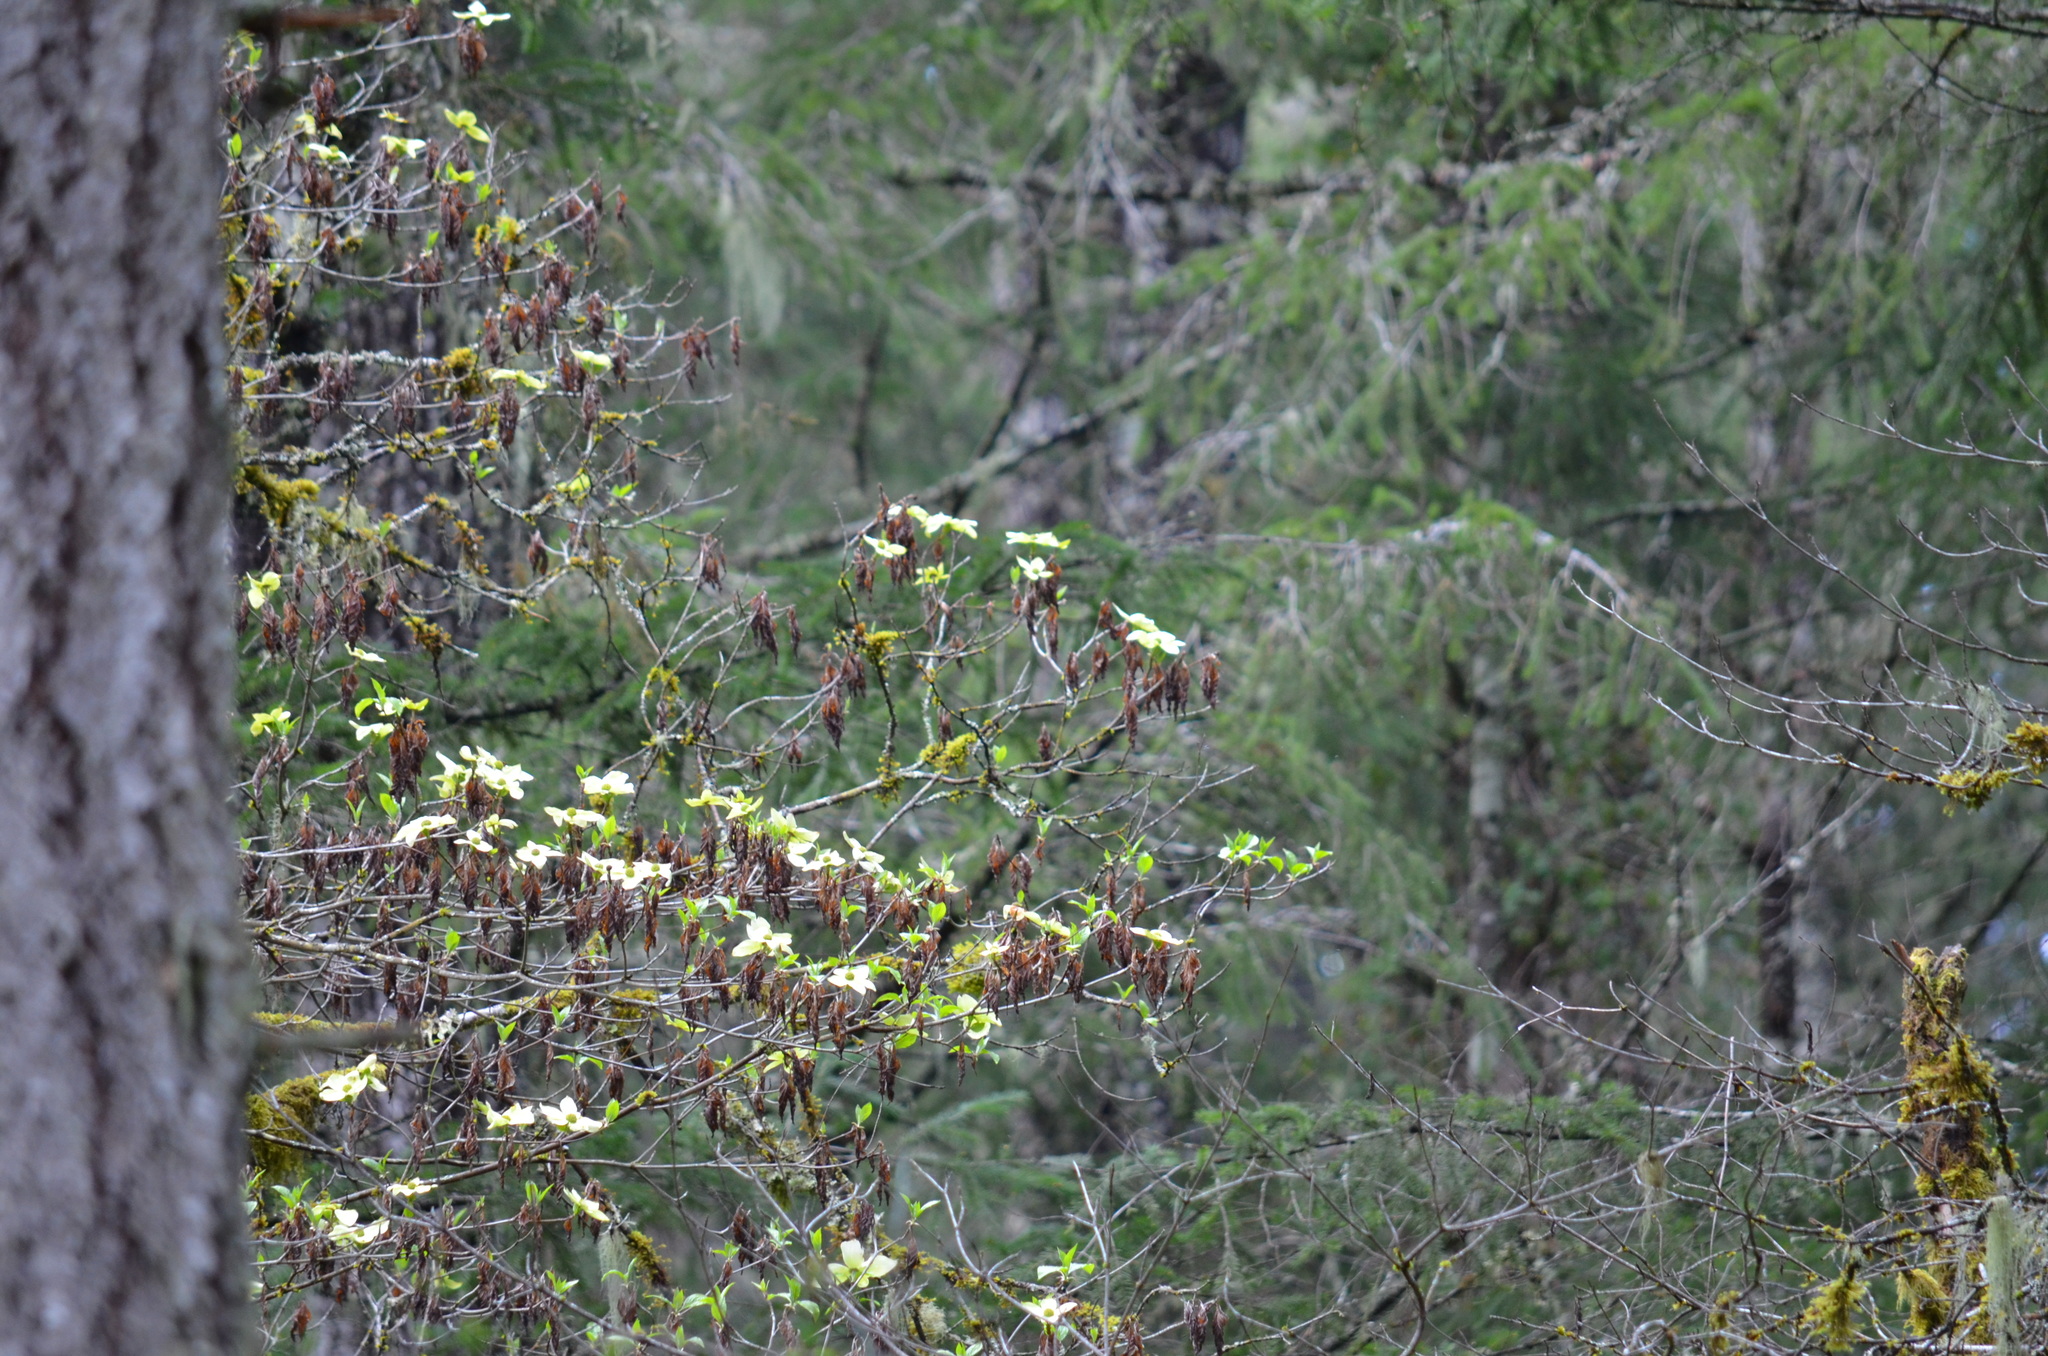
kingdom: Plantae
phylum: Tracheophyta
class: Magnoliopsida
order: Cornales
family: Cornaceae
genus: Cornus
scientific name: Cornus nuttallii
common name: Pacific dogwood
